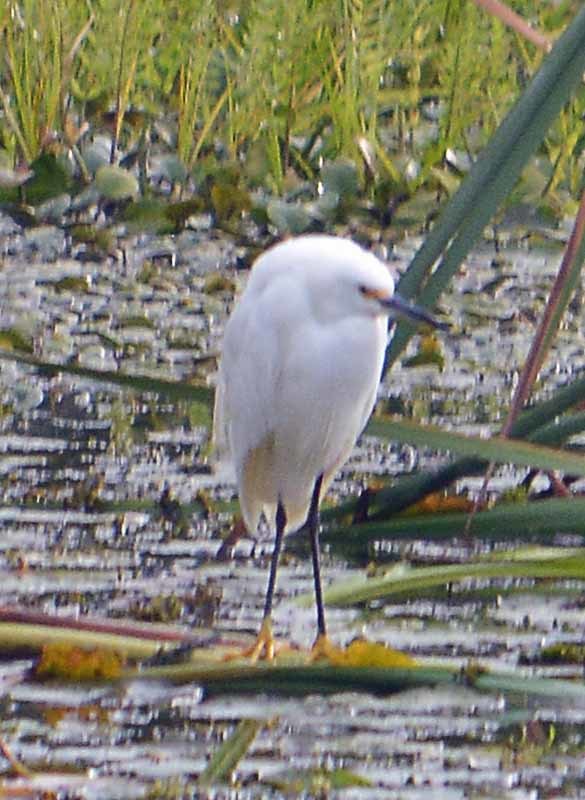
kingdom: Animalia
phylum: Chordata
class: Aves
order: Pelecaniformes
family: Ardeidae
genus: Egretta
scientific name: Egretta thula
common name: Snowy egret
